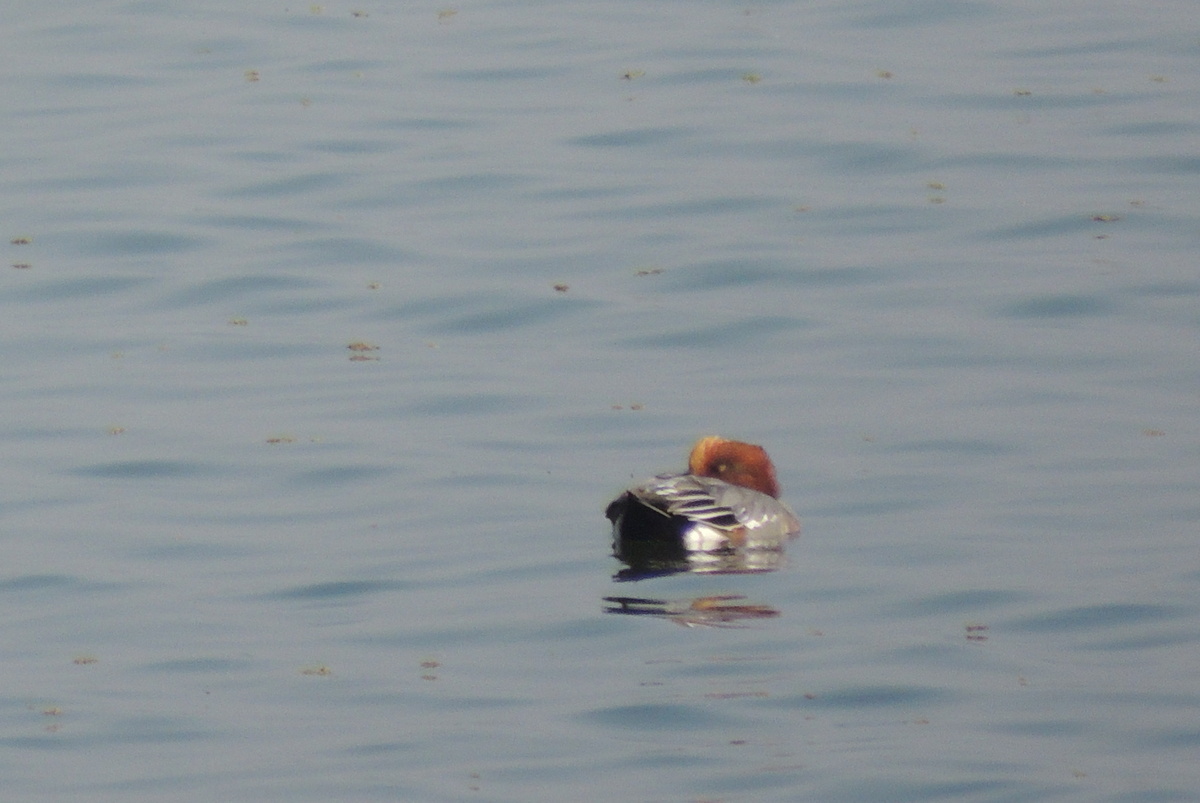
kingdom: Animalia
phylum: Chordata
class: Aves
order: Anseriformes
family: Anatidae
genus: Mareca
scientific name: Mareca penelope
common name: Eurasian wigeon
